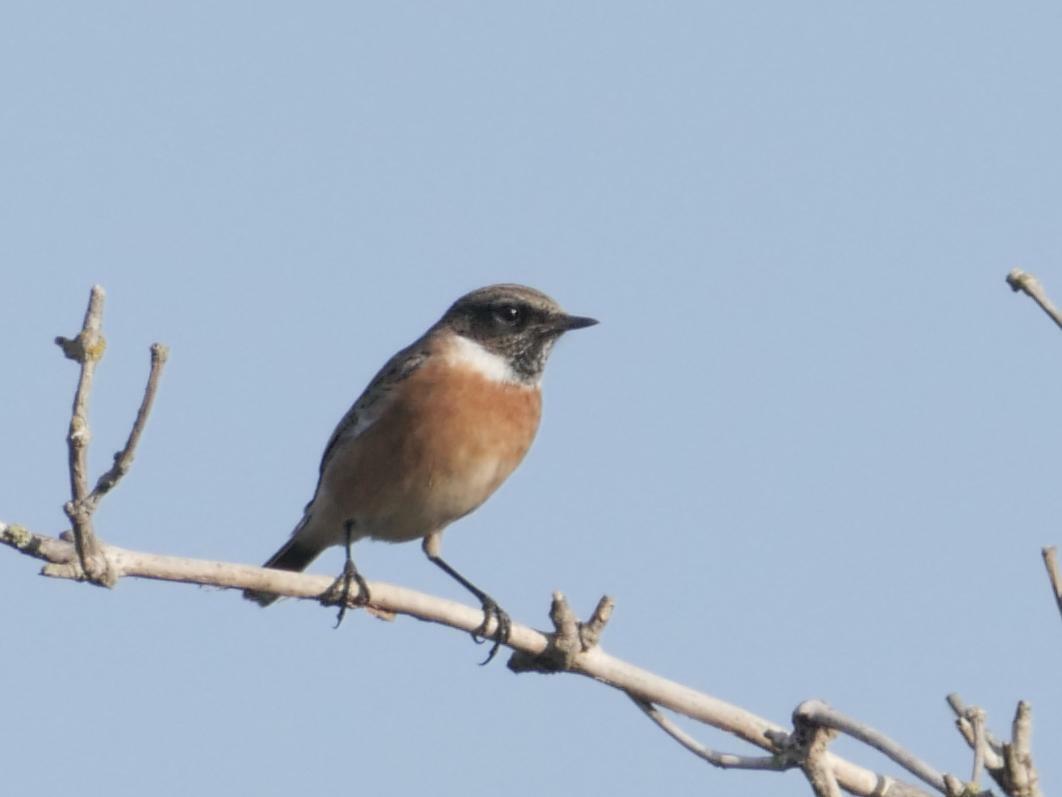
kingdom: Animalia
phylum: Chordata
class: Aves
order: Passeriformes
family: Muscicapidae
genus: Saxicola
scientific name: Saxicola rubicola
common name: European stonechat
